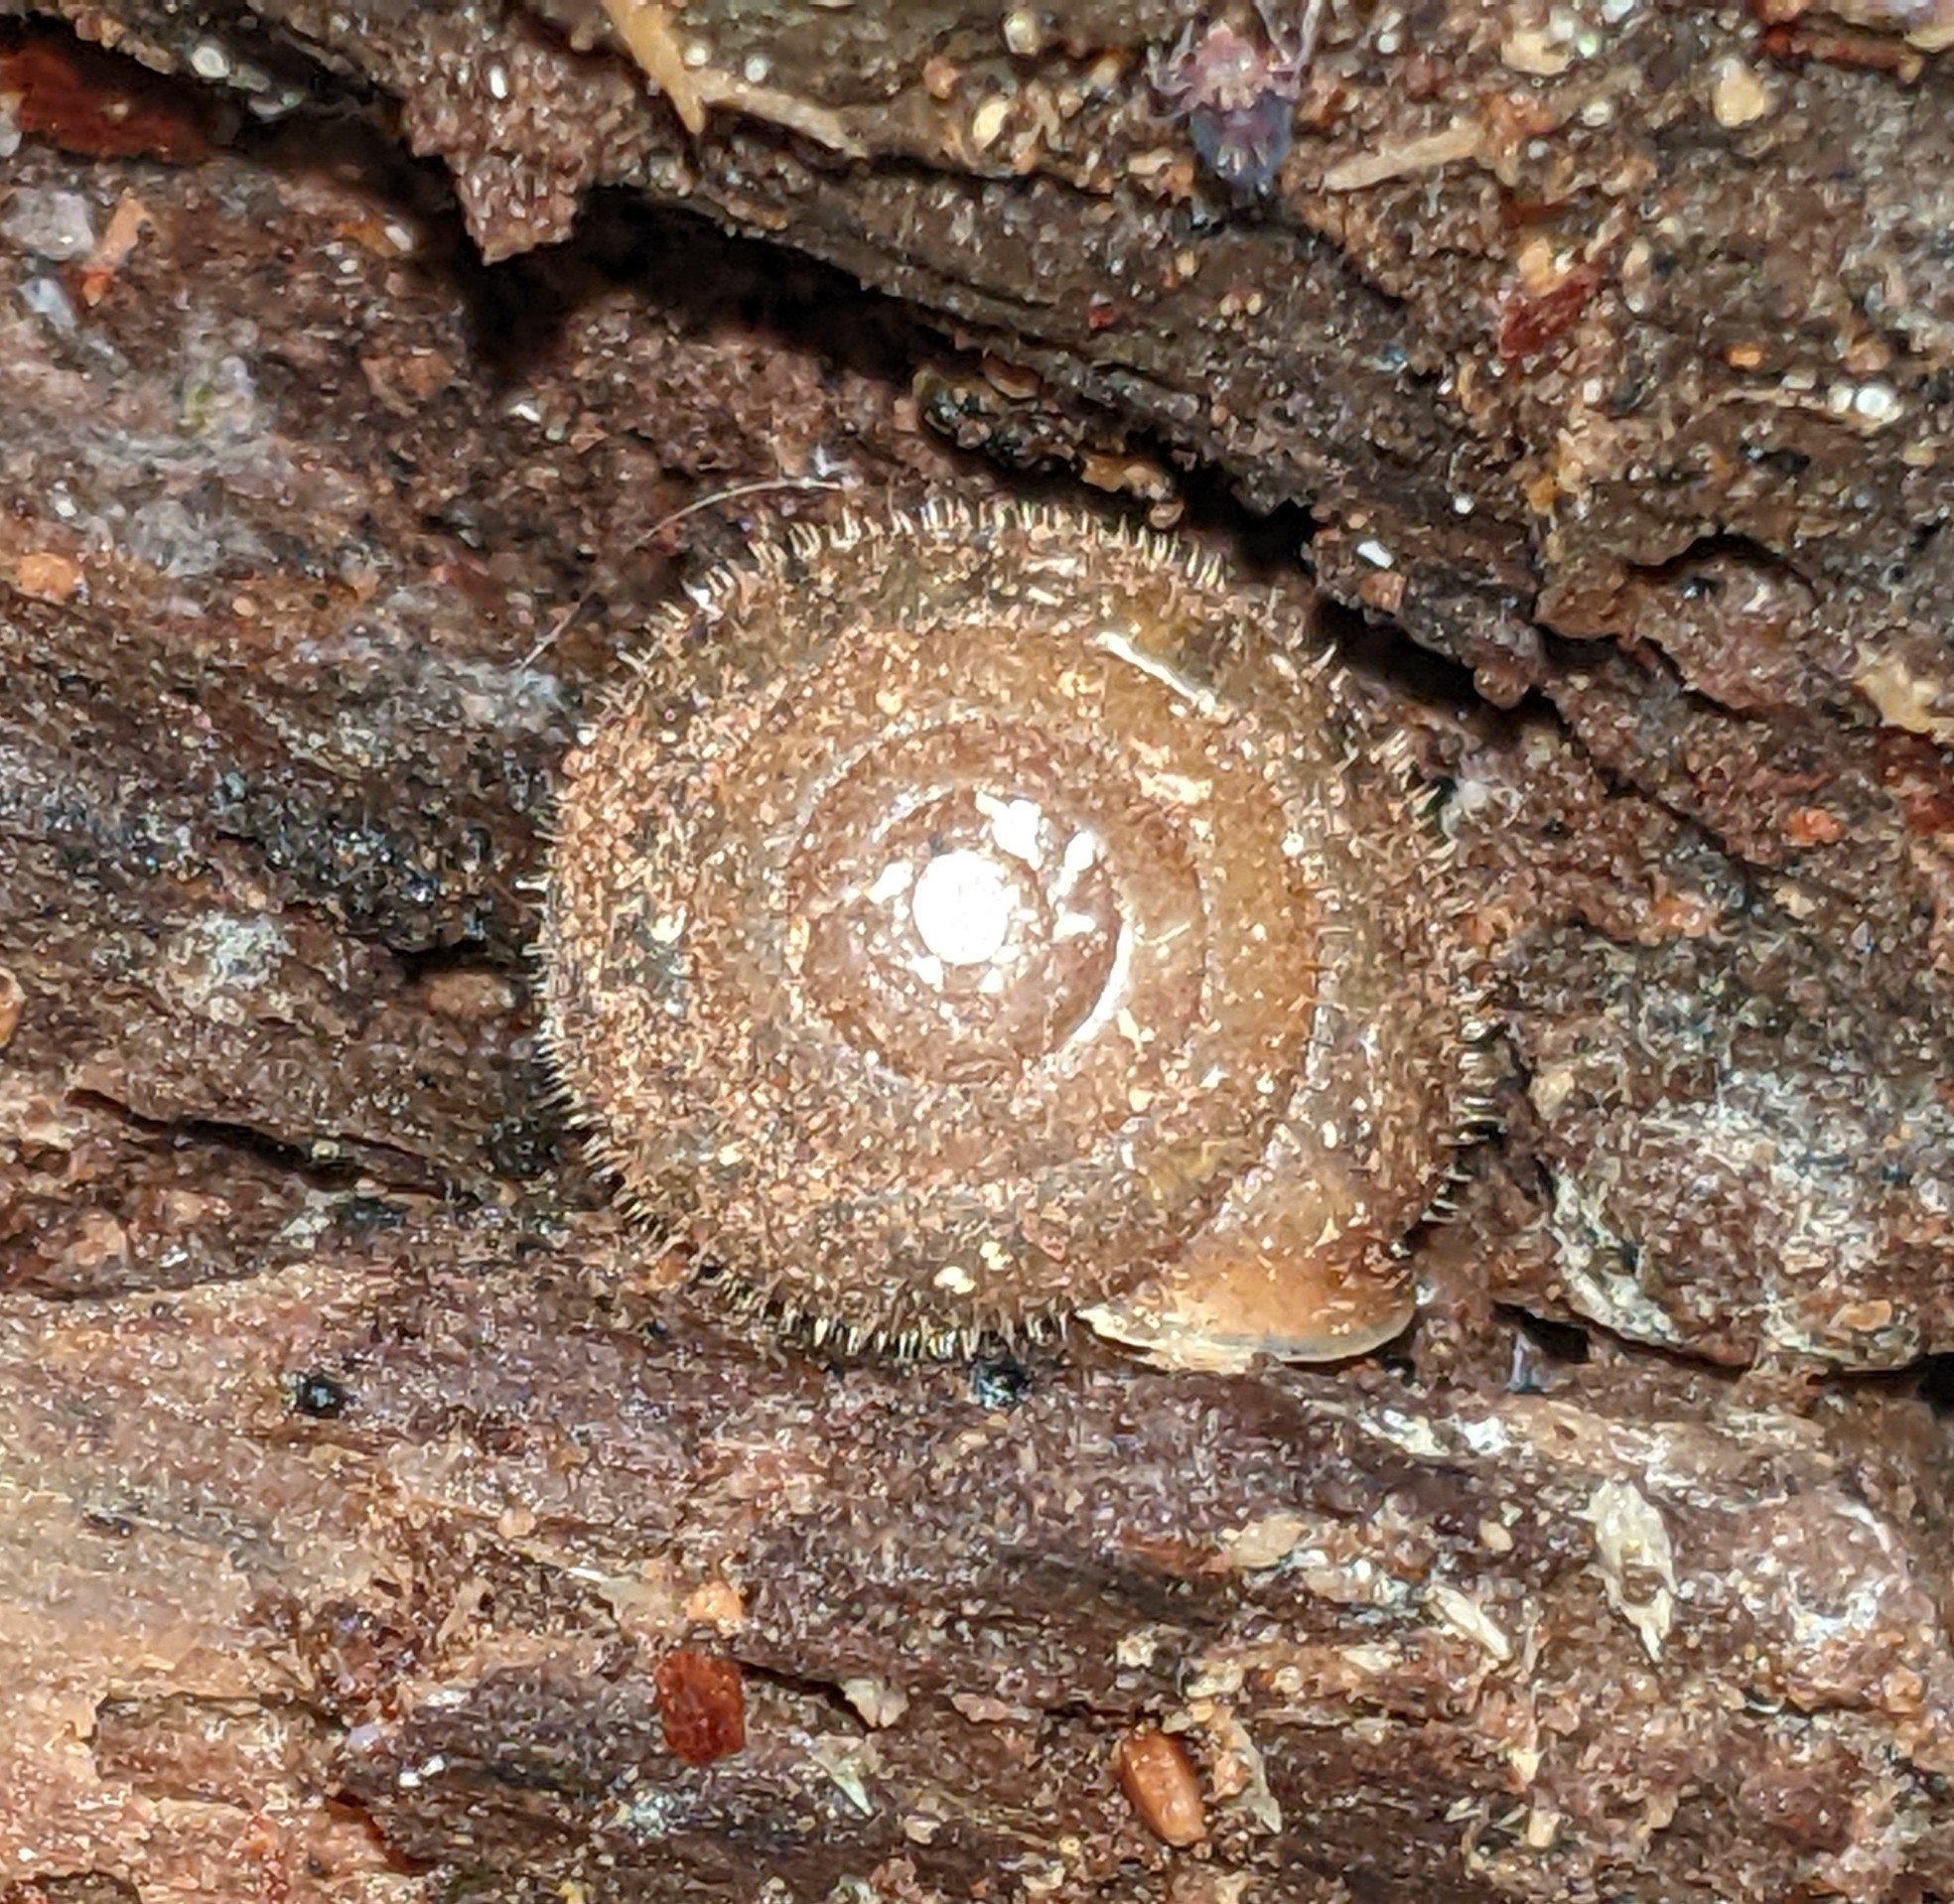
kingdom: Animalia
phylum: Mollusca
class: Gastropoda
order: Stylommatophora
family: Polygyridae
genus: Vespericola
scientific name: Vespericola columbianus
